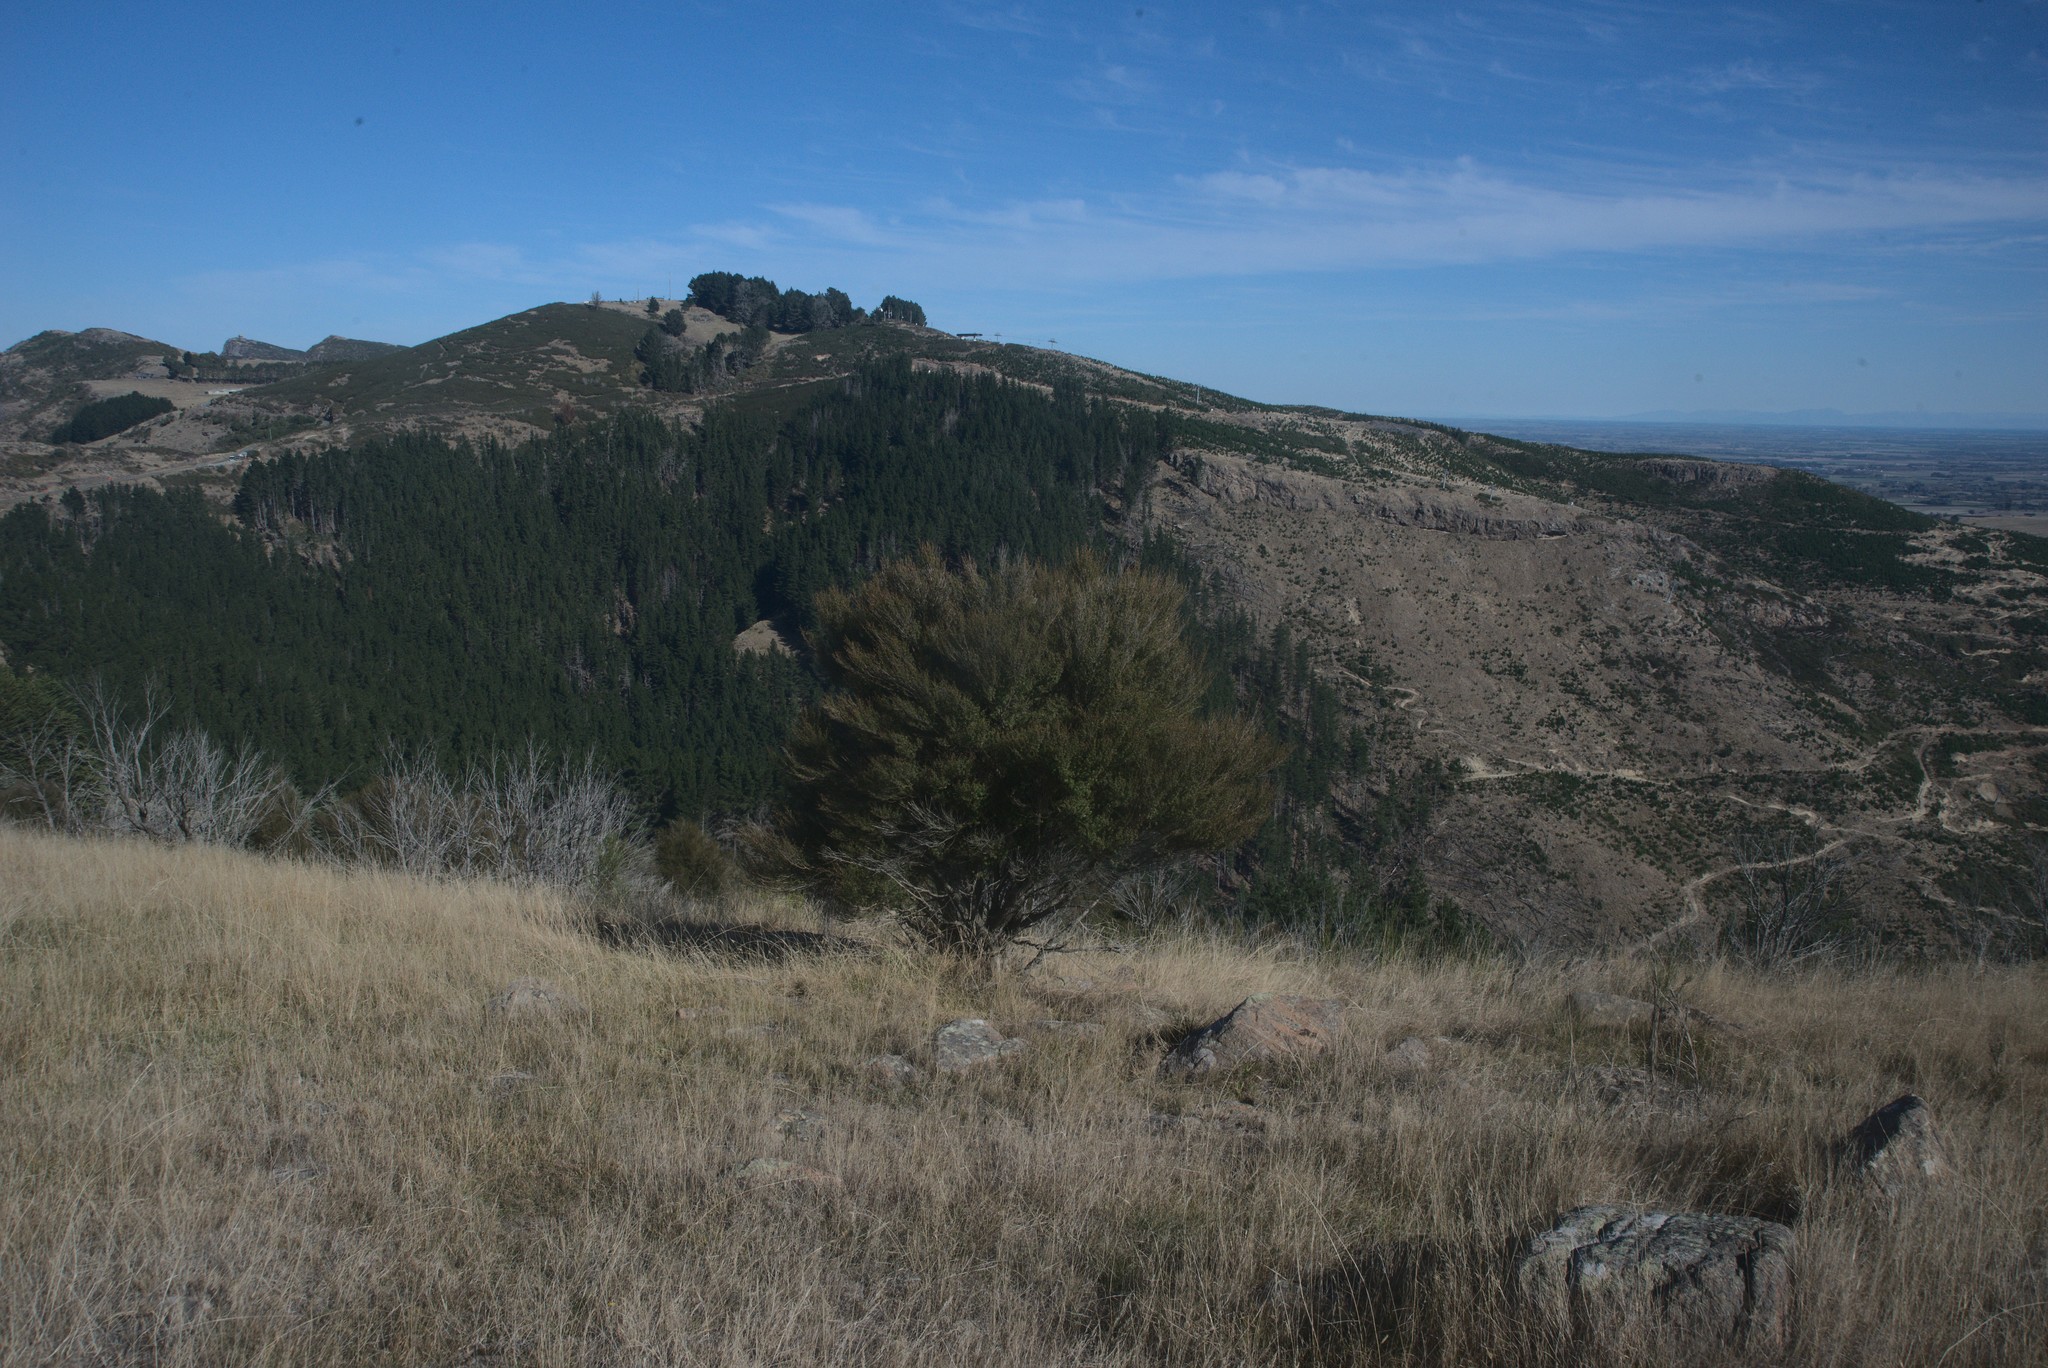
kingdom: Plantae
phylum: Tracheophyta
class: Magnoliopsida
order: Myrtales
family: Myrtaceae
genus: Kunzea
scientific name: Kunzea robusta
